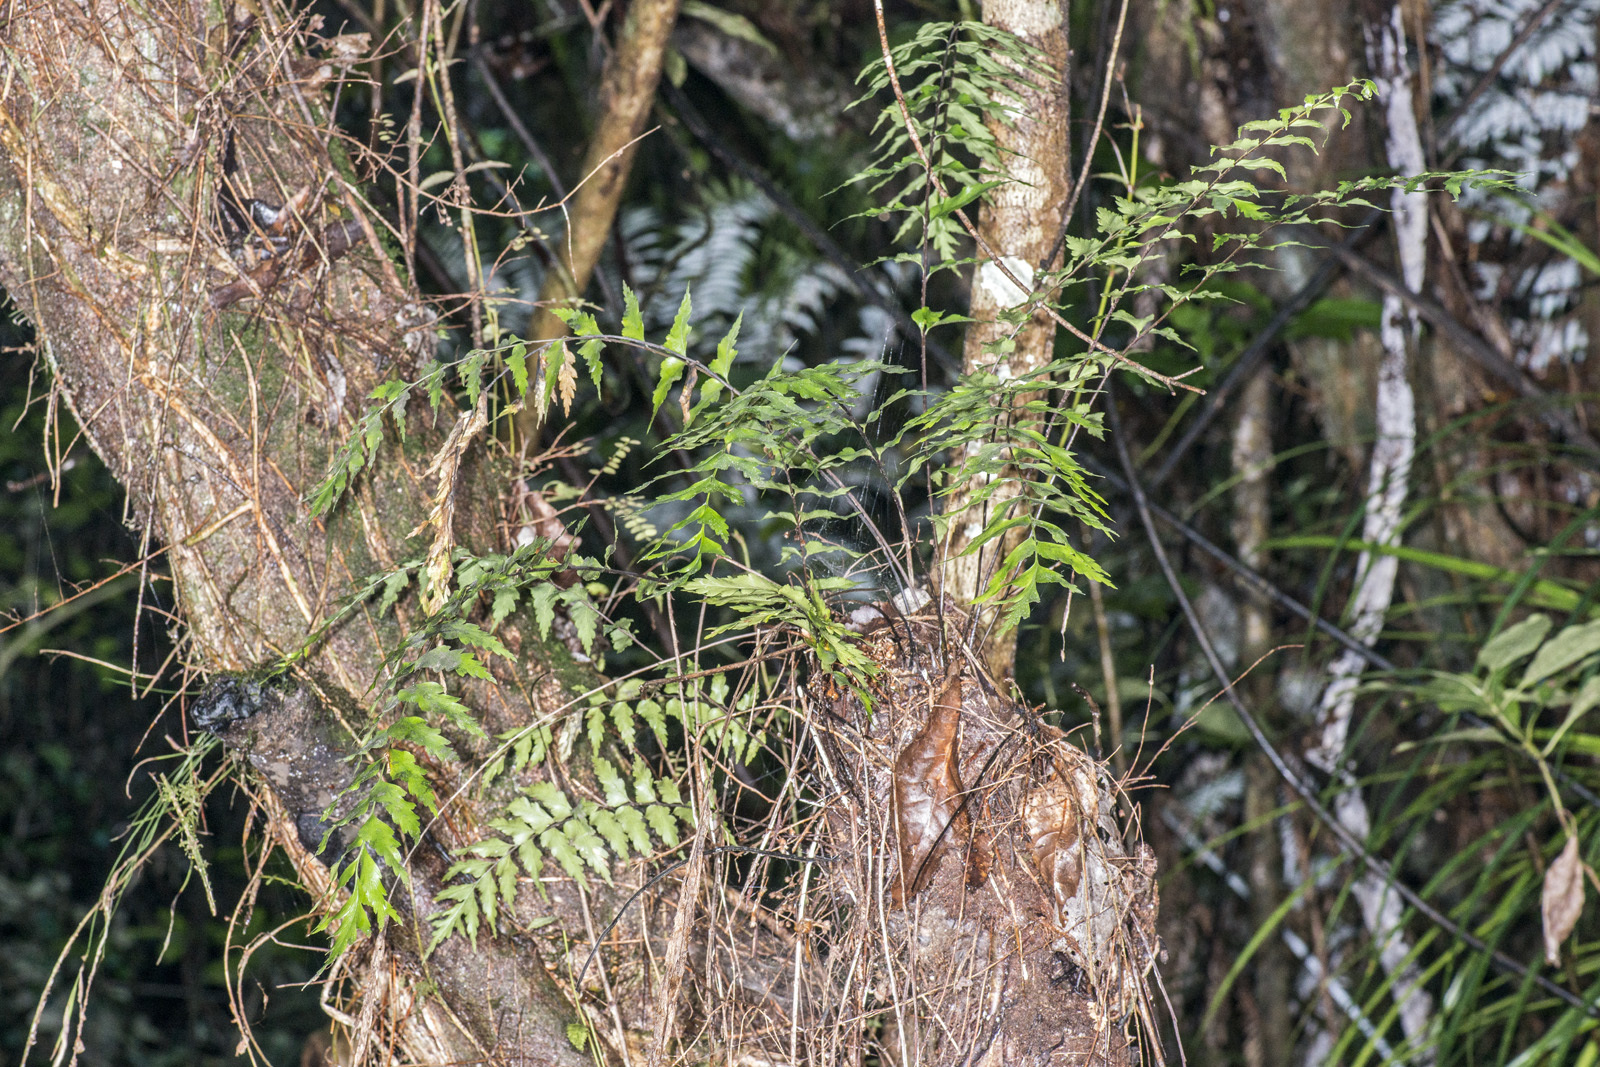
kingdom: Plantae
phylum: Tracheophyta
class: Polypodiopsida
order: Polypodiales
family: Aspleniaceae
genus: Asplenium
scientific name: Asplenium polyodon
